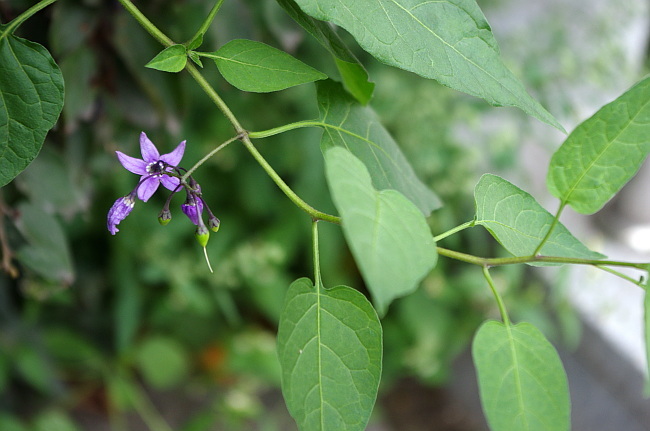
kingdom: Plantae
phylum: Tracheophyta
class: Magnoliopsida
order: Solanales
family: Solanaceae
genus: Solanum
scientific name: Solanum dulcamara
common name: Climbing nightshade
